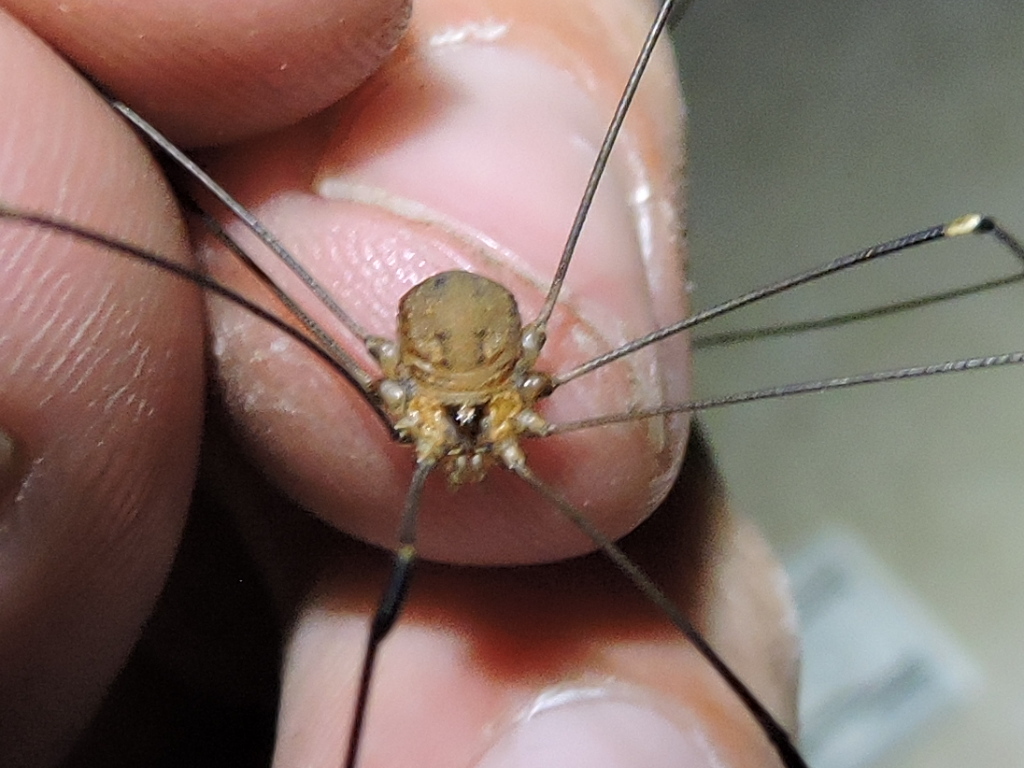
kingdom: Animalia
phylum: Arthropoda
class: Arachnida
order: Opiliones
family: Sclerosomatidae
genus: Leiobunum
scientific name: Leiobunum townsendi
